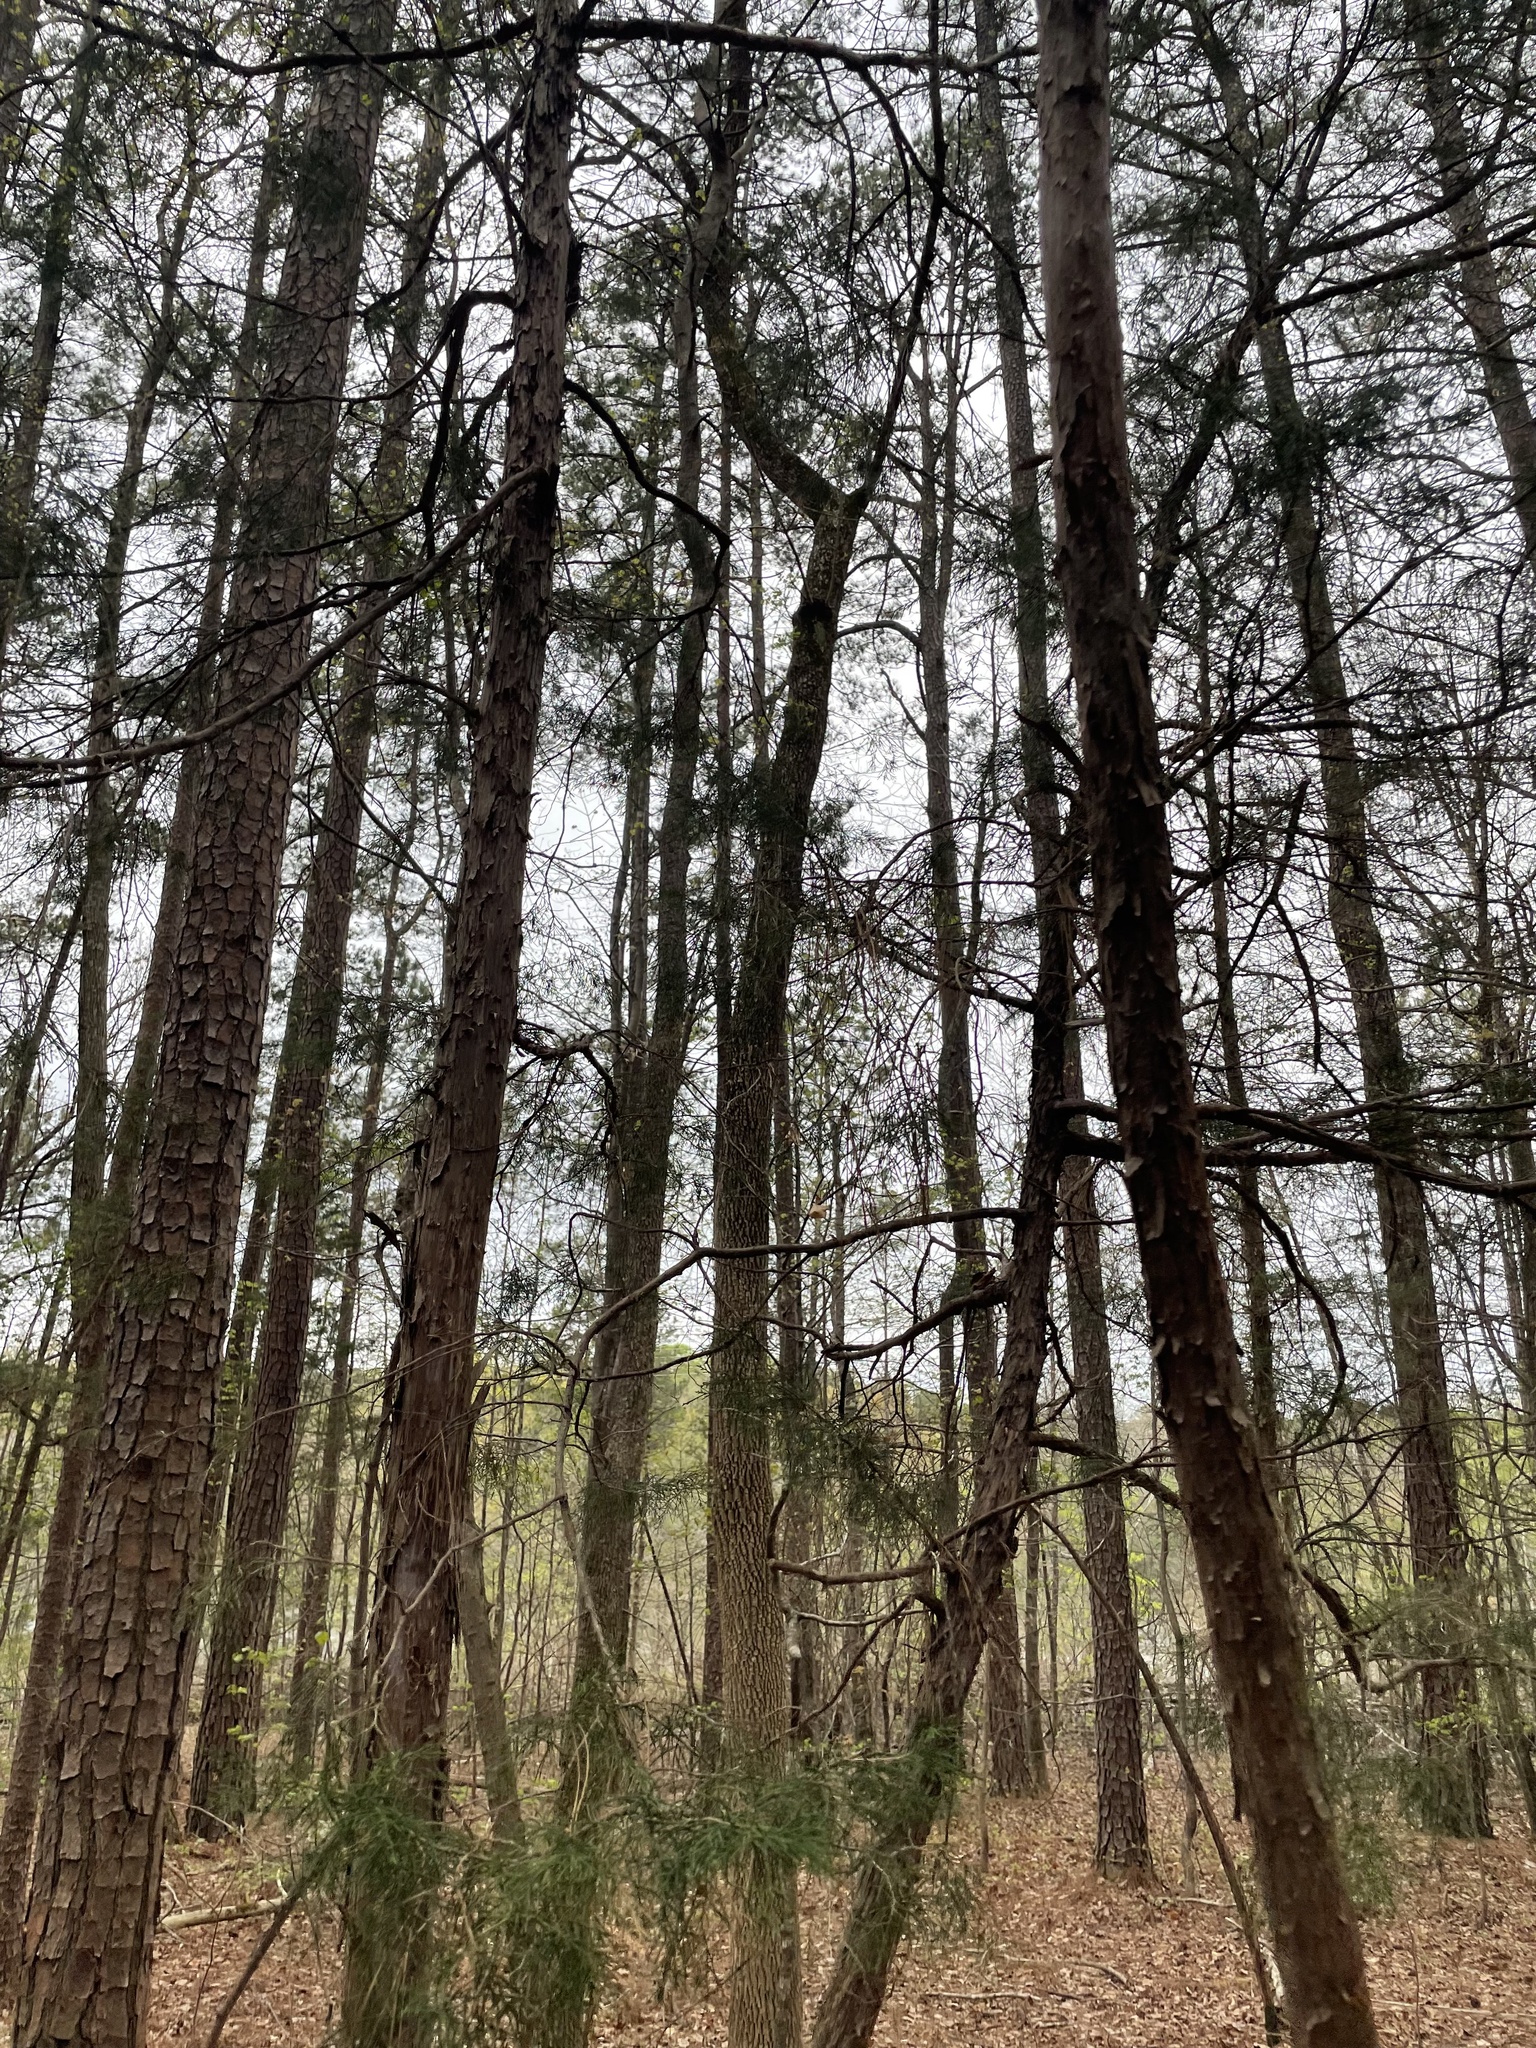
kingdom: Plantae
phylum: Tracheophyta
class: Pinopsida
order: Pinales
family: Cupressaceae
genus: Juniperus
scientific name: Juniperus virginiana
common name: Red juniper
